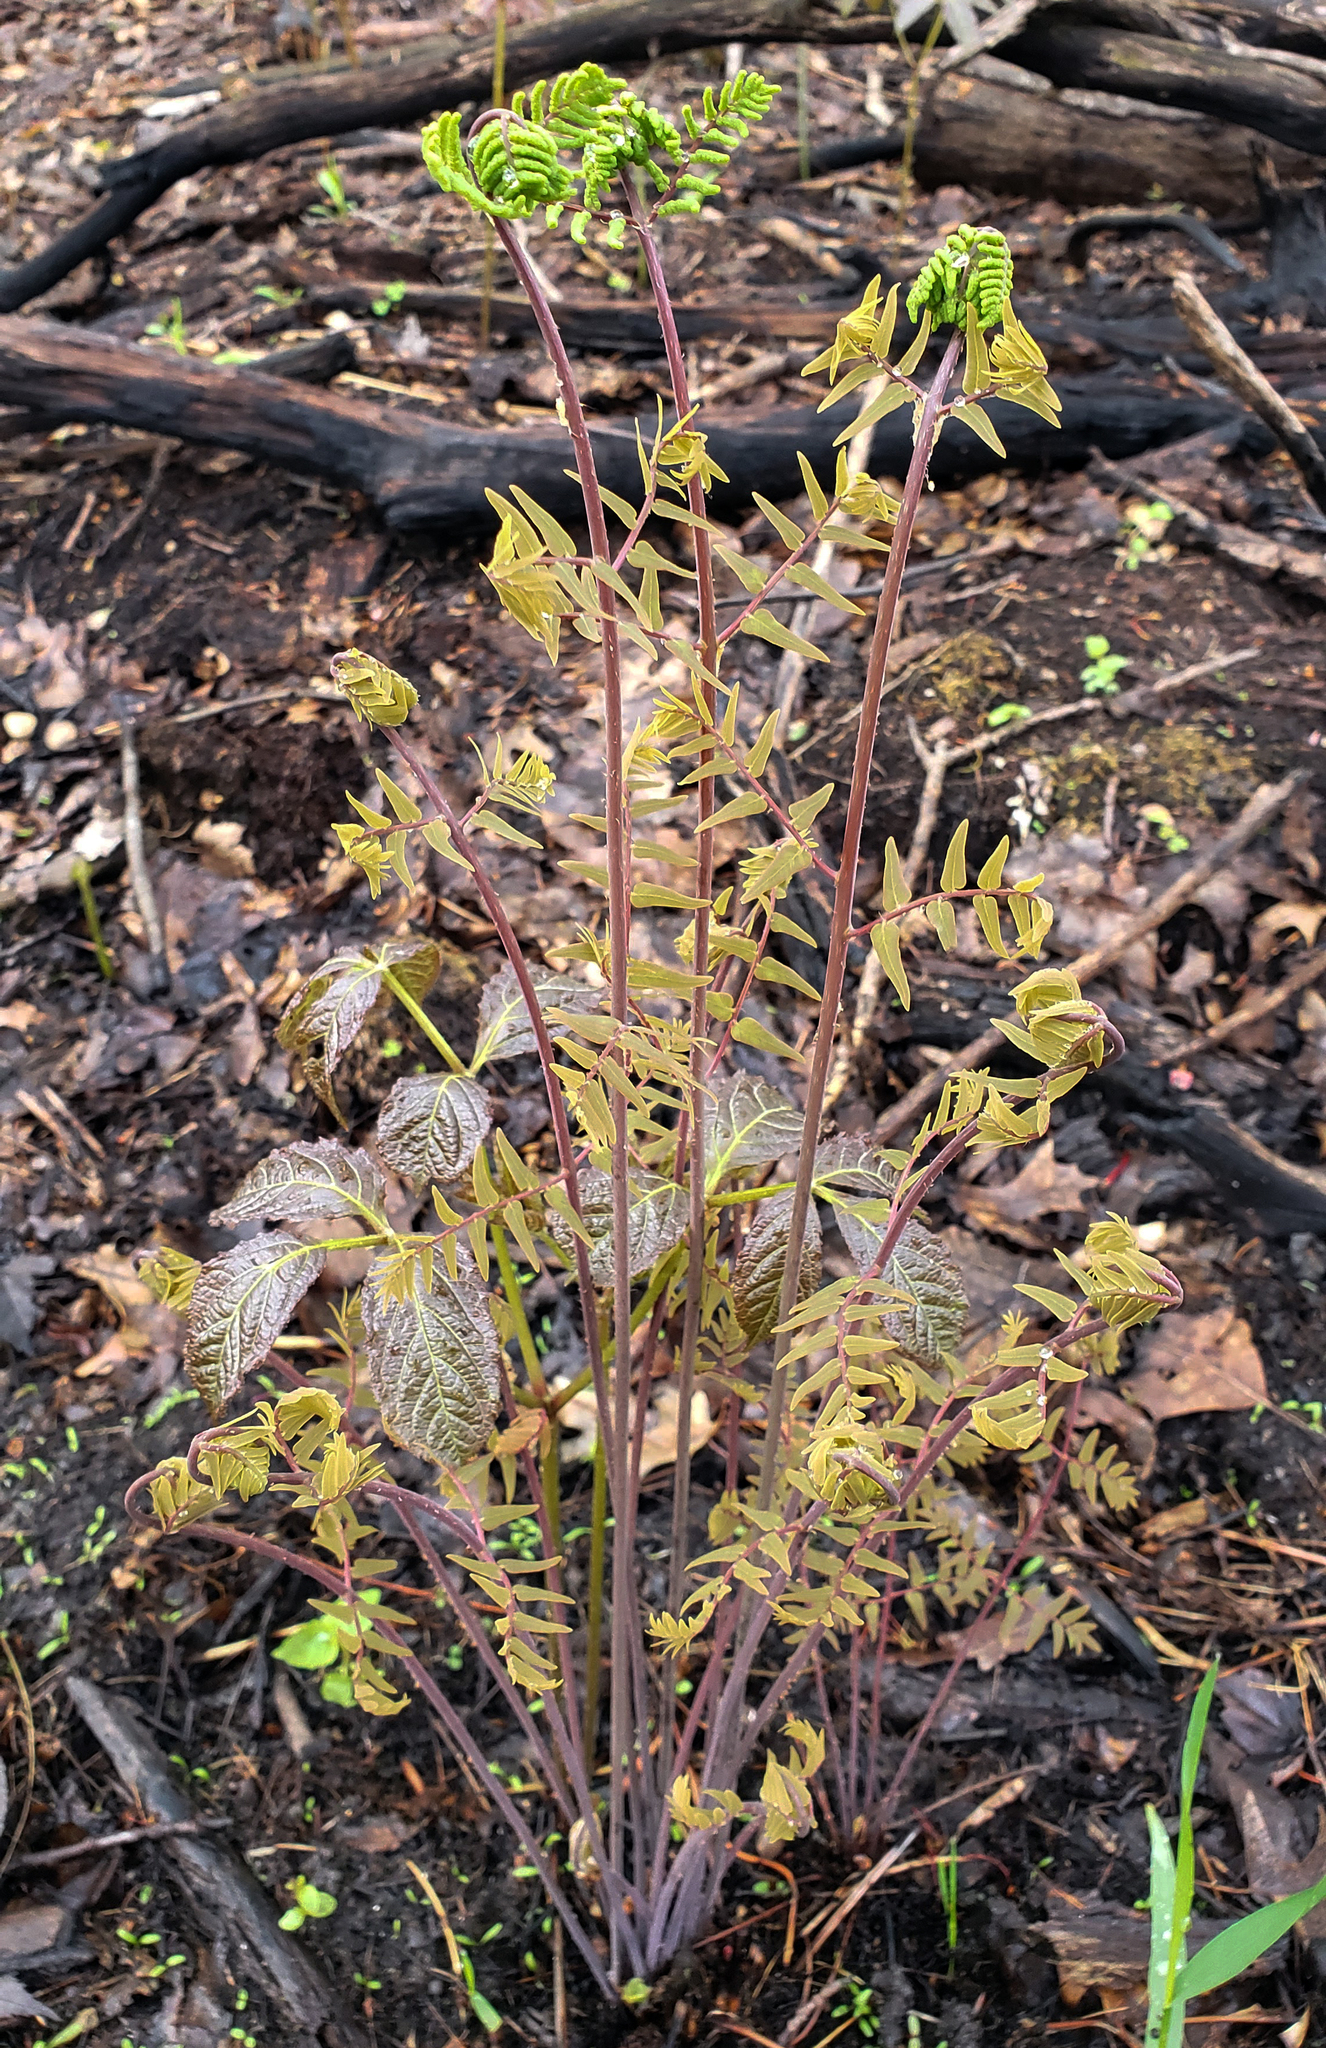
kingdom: Plantae
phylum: Tracheophyta
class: Polypodiopsida
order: Osmundales
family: Osmundaceae
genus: Osmunda
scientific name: Osmunda spectabilis
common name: American royal fern
